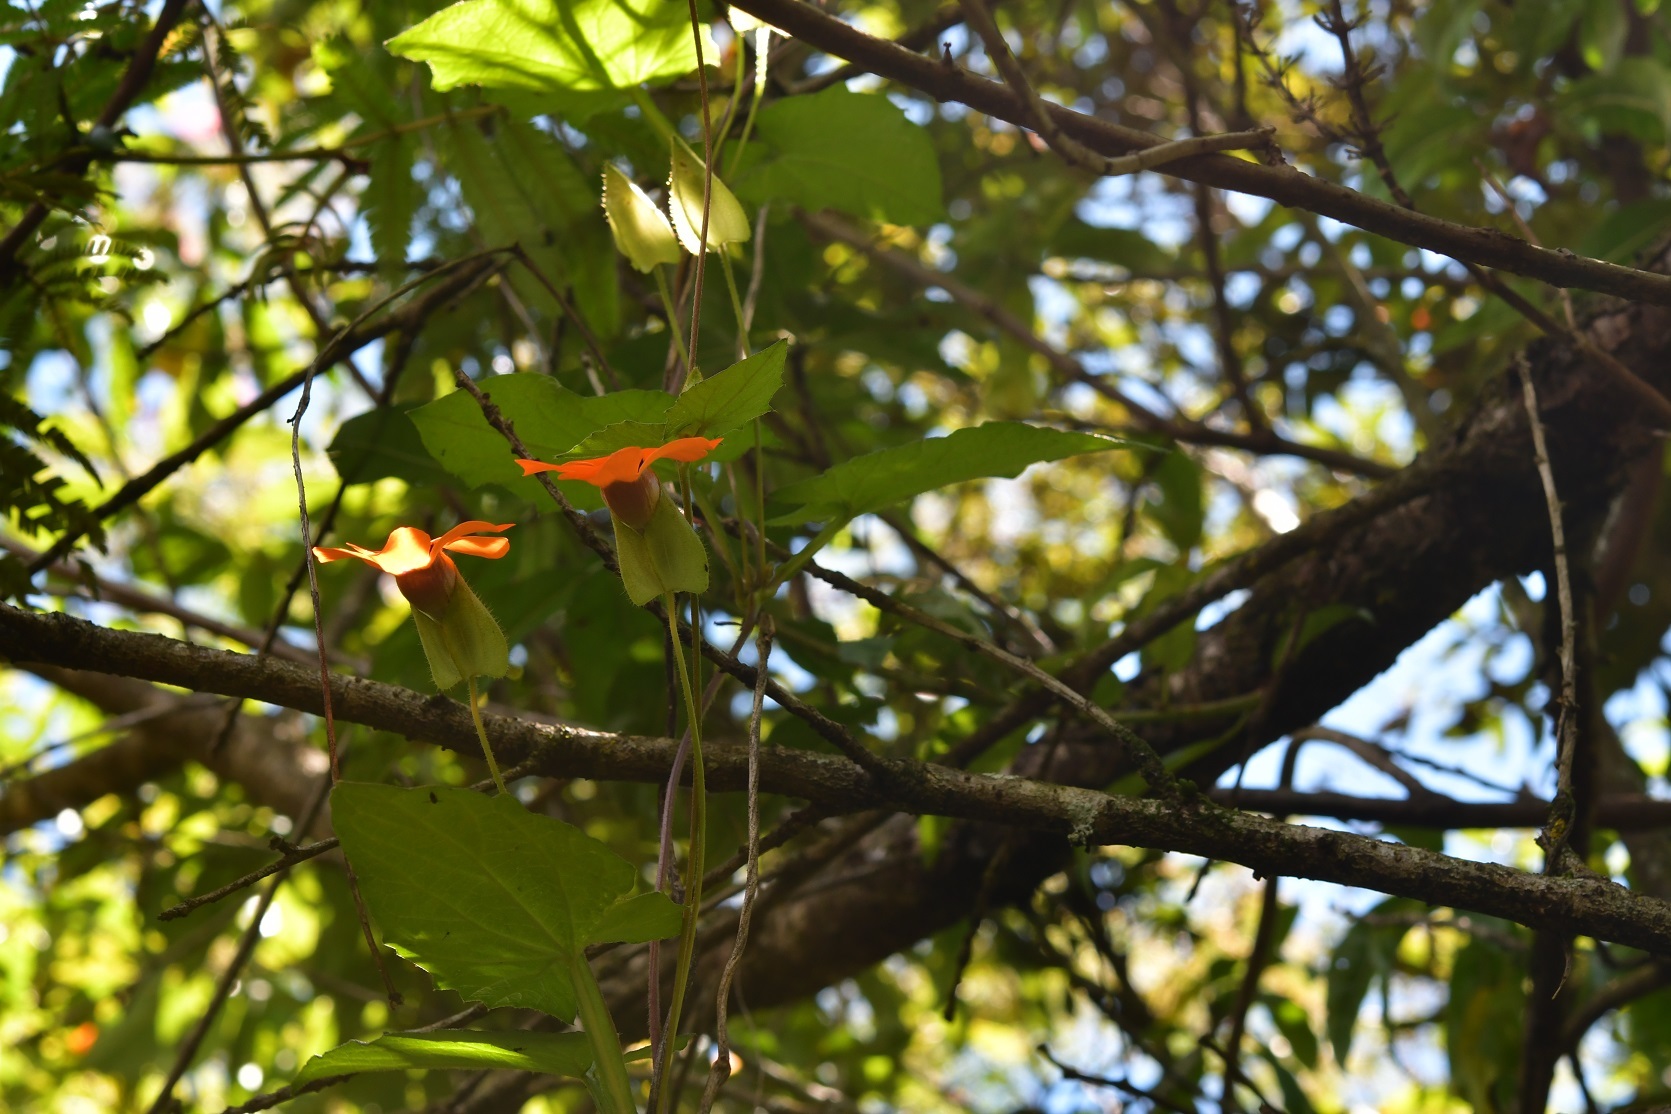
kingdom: Plantae
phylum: Tracheophyta
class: Magnoliopsida
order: Lamiales
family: Acanthaceae
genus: Thunbergia
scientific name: Thunbergia alata
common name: Blackeyed susan vine
